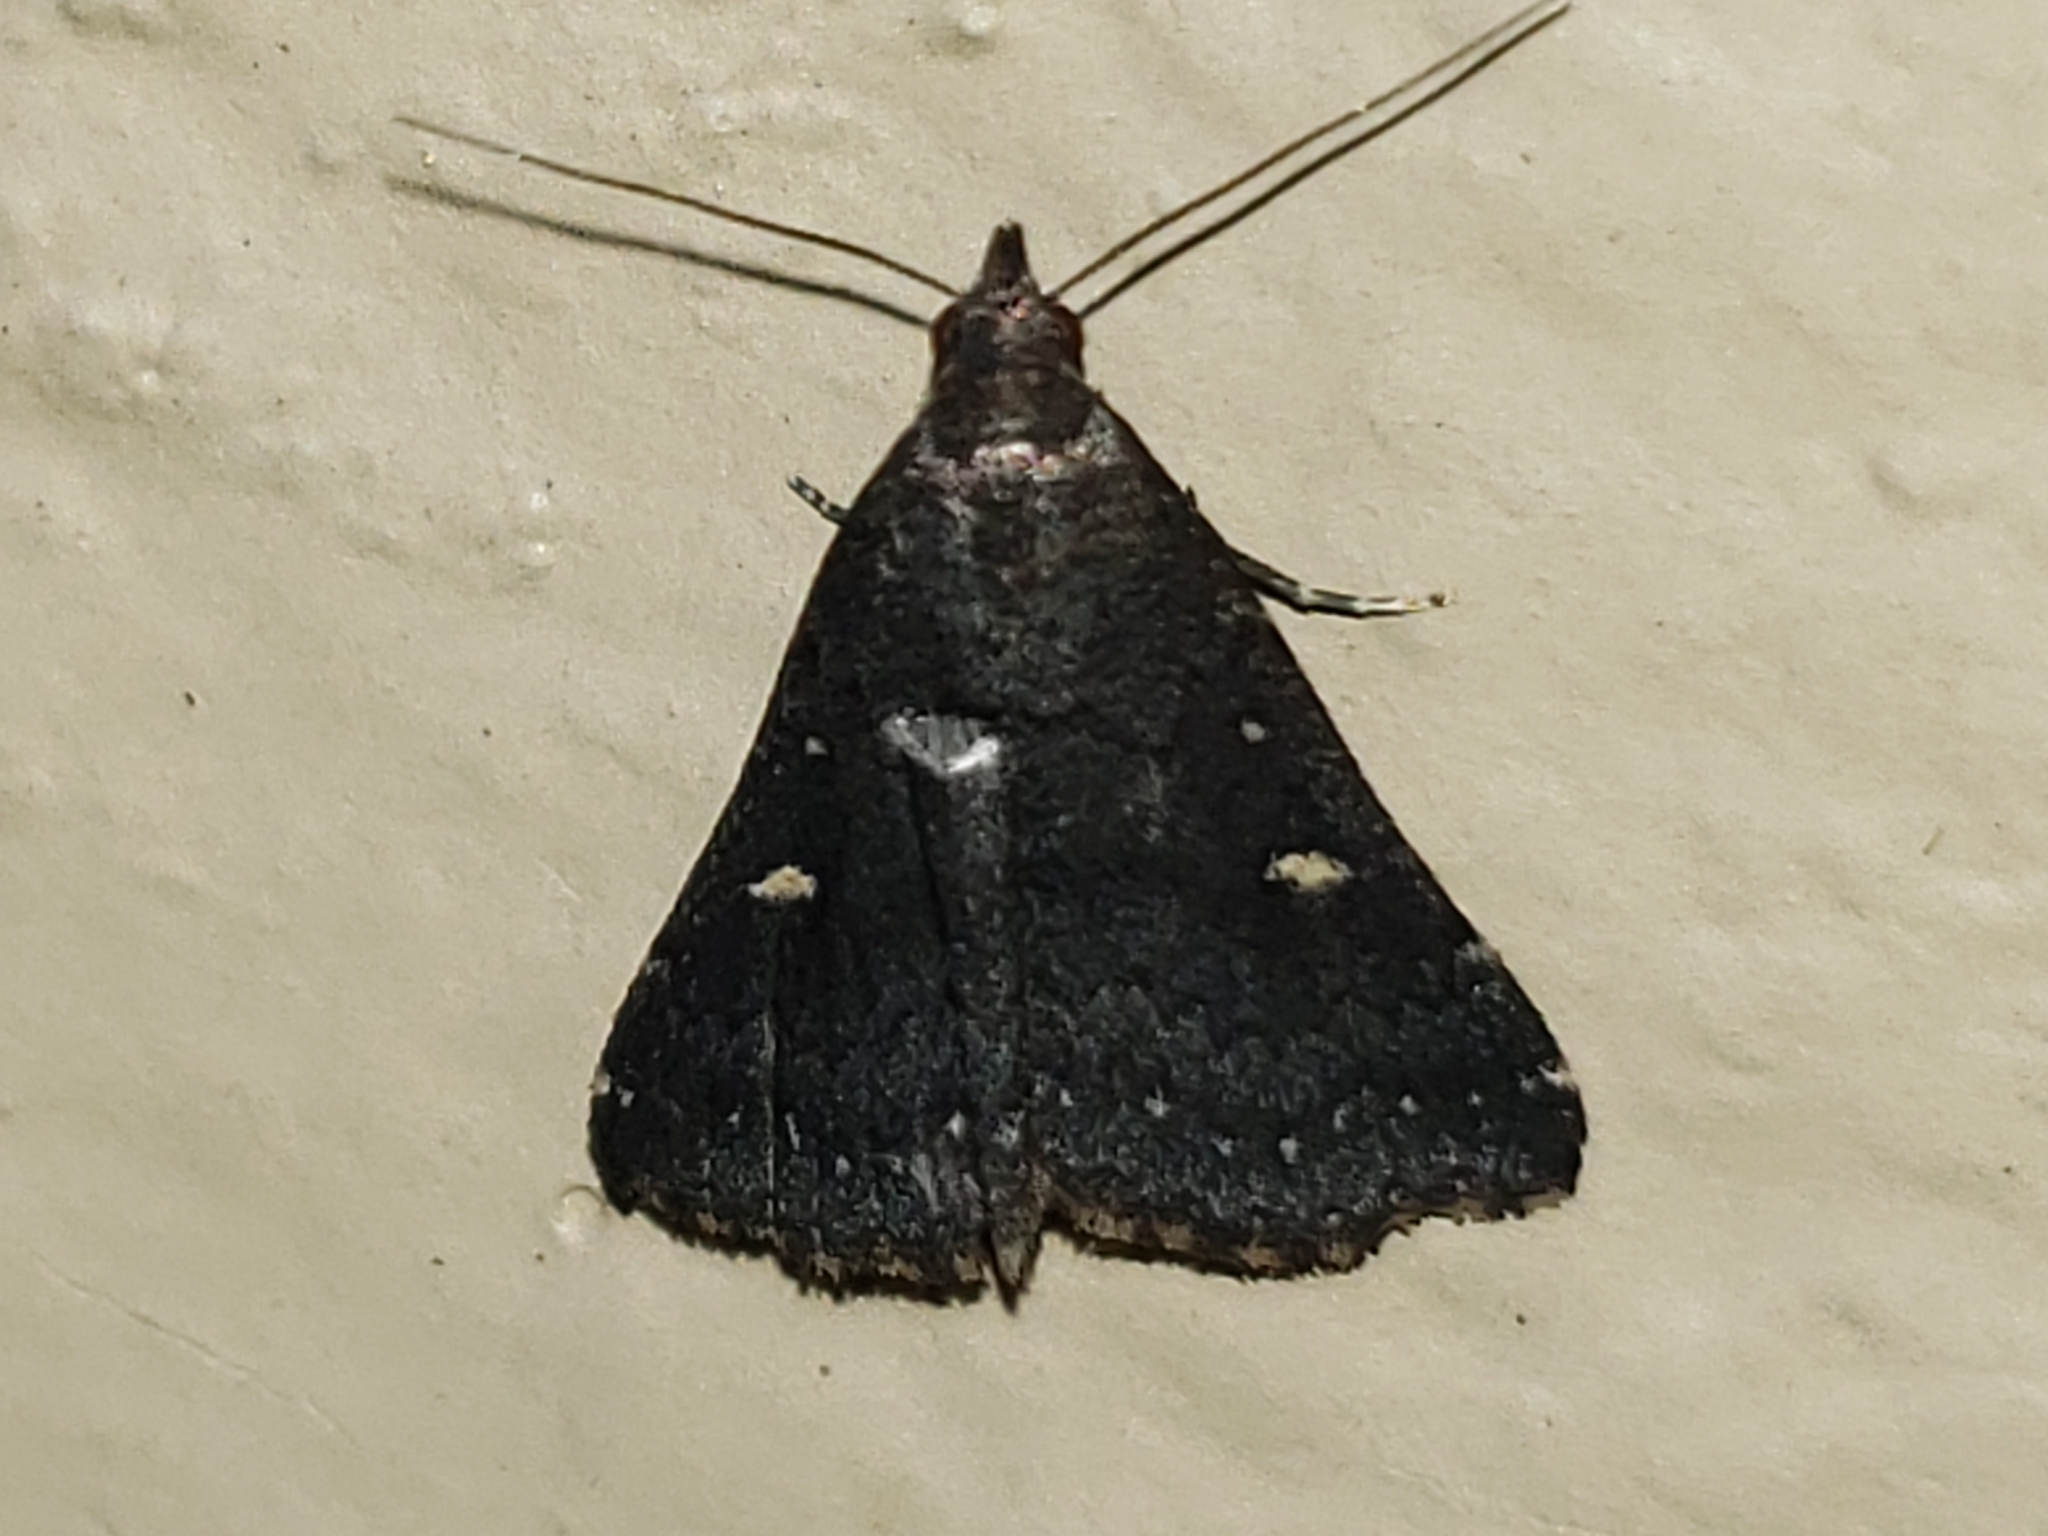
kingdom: Animalia
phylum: Arthropoda
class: Insecta
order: Lepidoptera
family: Erebidae
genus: Tetanolita
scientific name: Tetanolita mynesalis
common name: Smoky tetanolita moth
